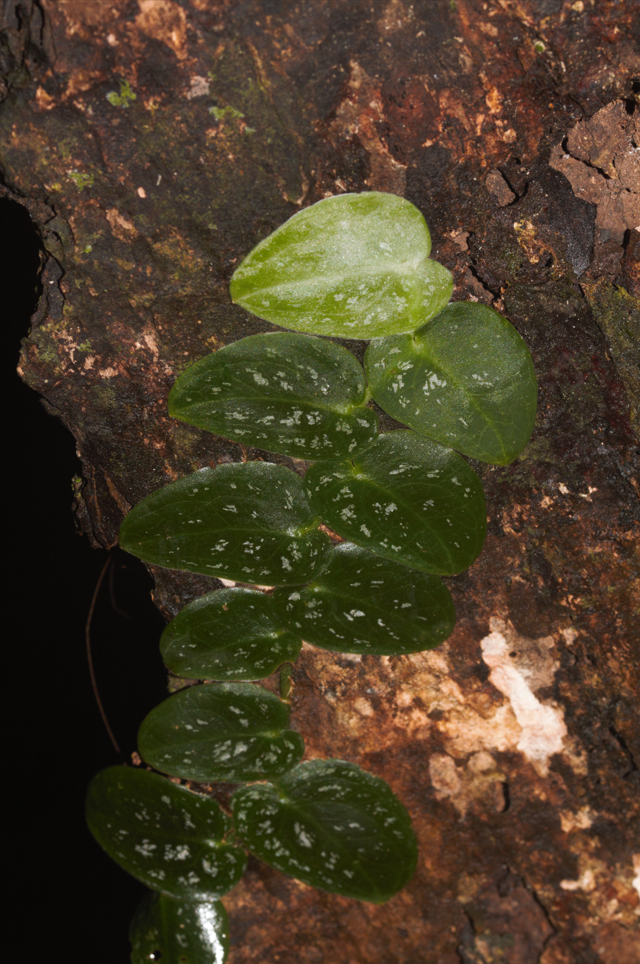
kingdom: Plantae
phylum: Tracheophyta
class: Liliopsida
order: Alismatales
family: Araceae
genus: Monstera
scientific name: Monstera dubia
